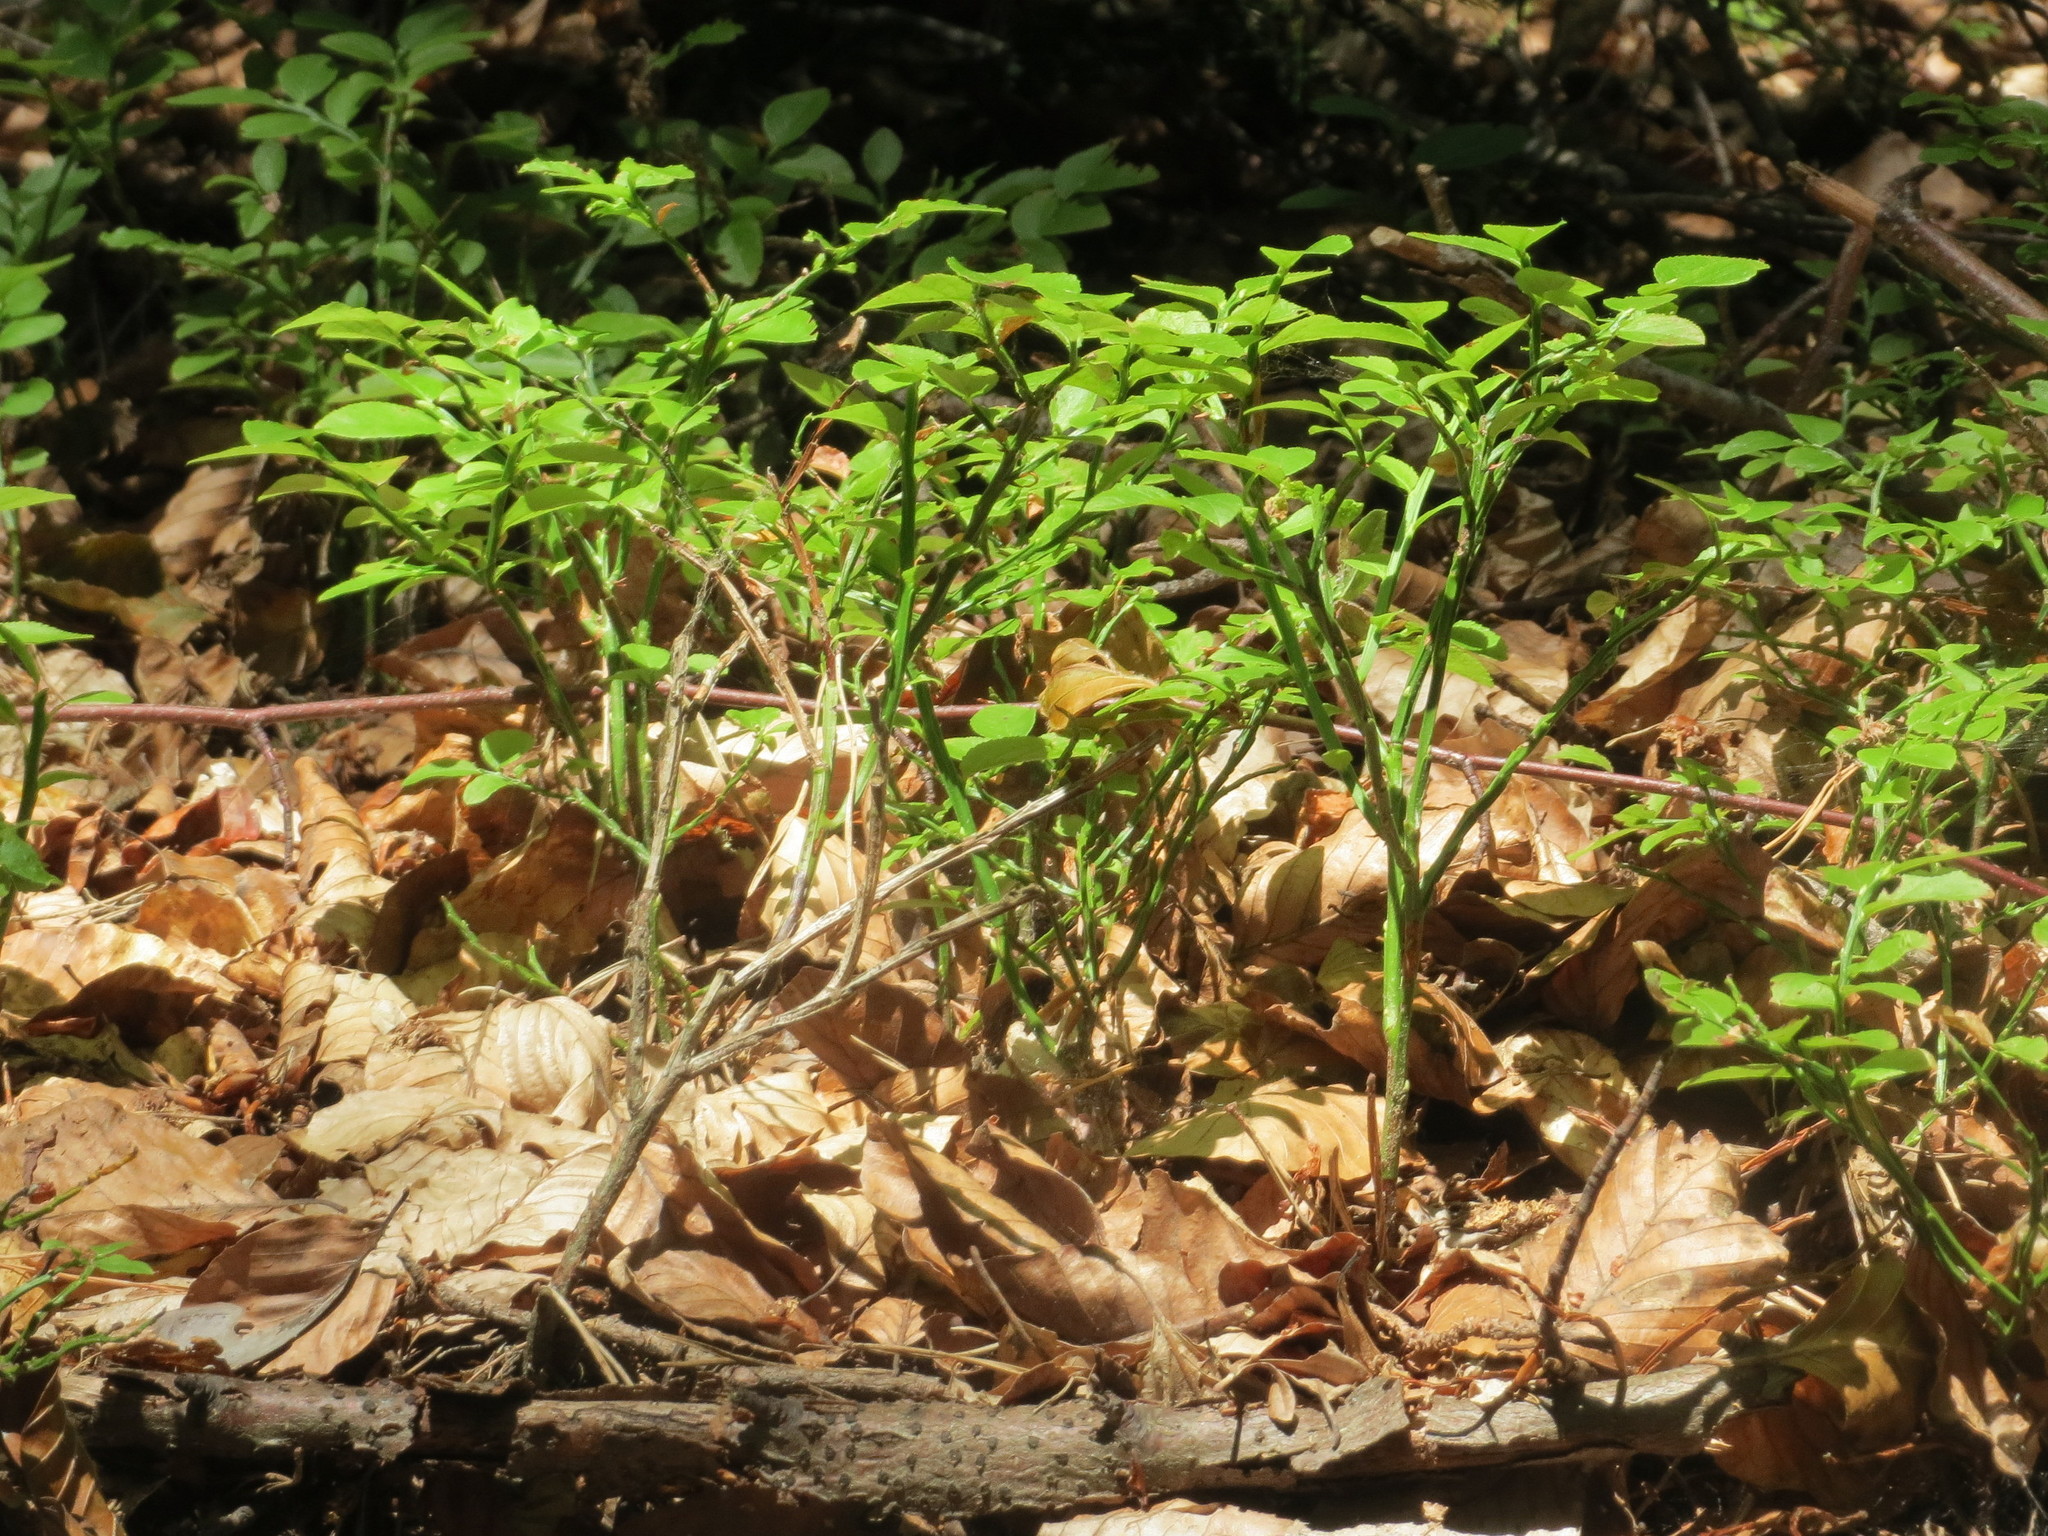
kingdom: Plantae
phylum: Tracheophyta
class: Magnoliopsida
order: Ericales
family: Ericaceae
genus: Vaccinium
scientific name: Vaccinium myrtillus
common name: Bilberry
